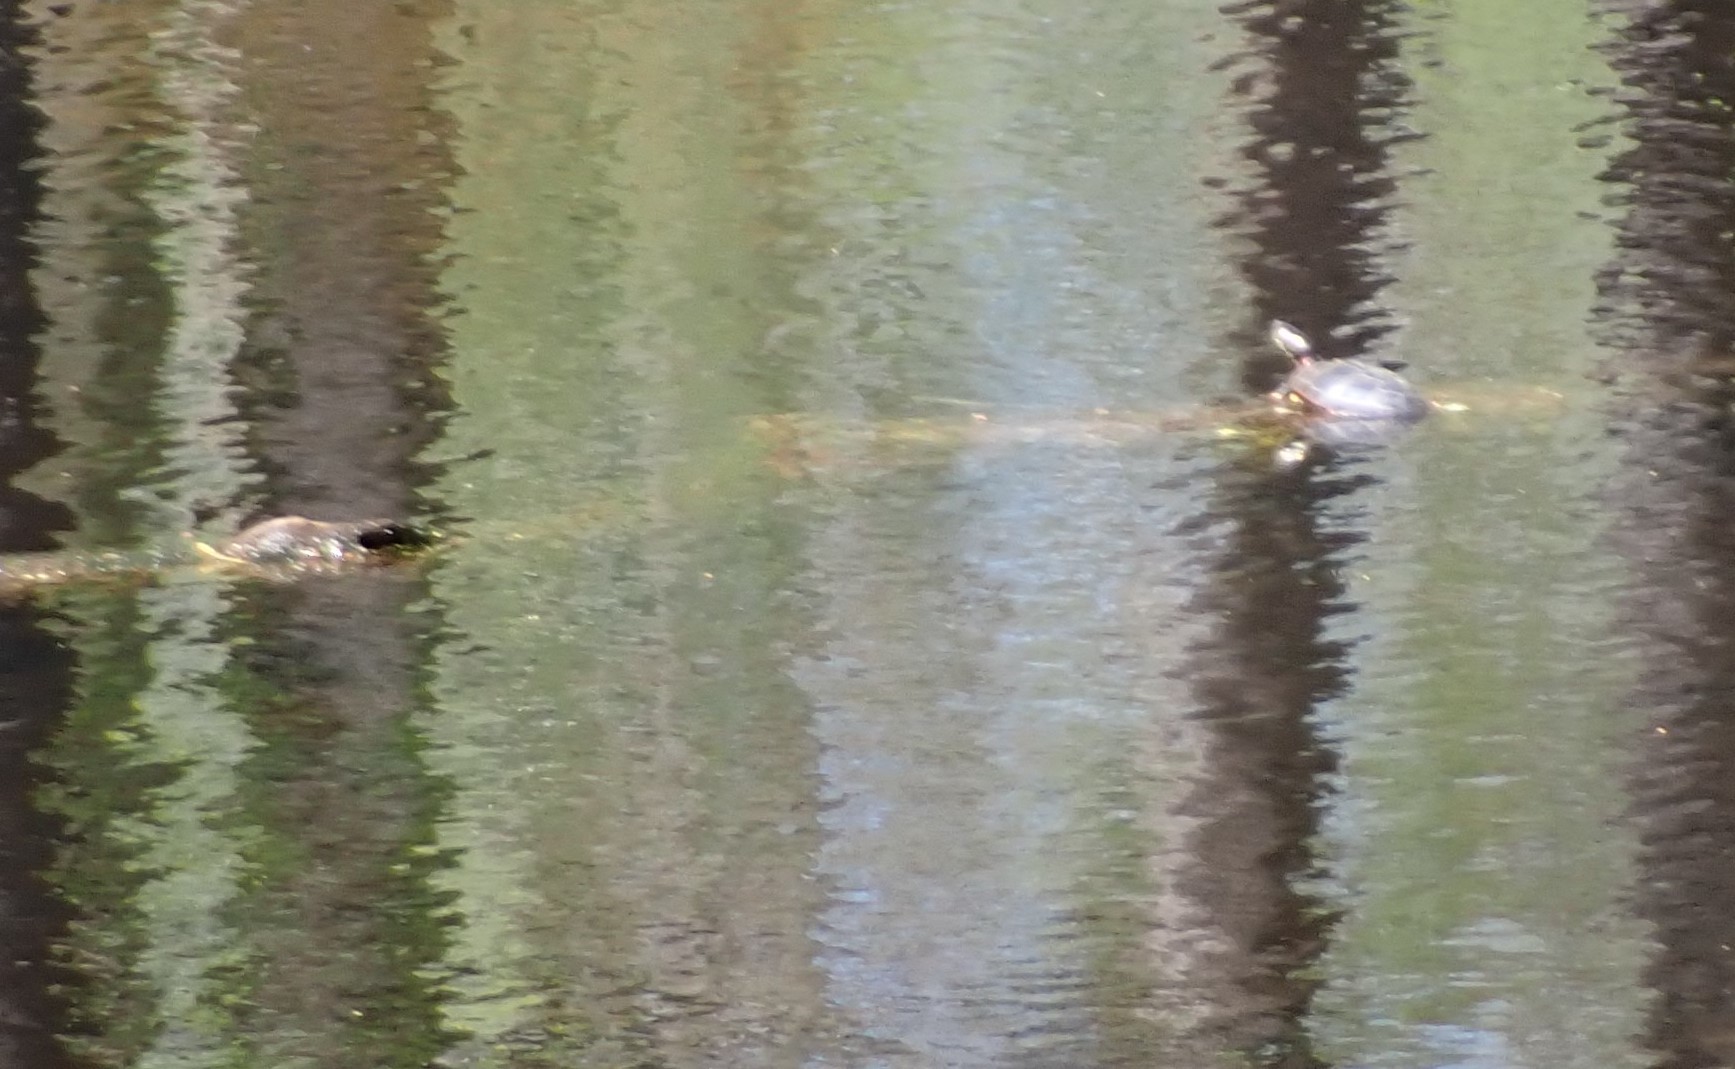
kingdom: Animalia
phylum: Chordata
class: Testudines
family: Emydidae
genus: Chrysemys
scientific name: Chrysemys picta
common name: Painted turtle
